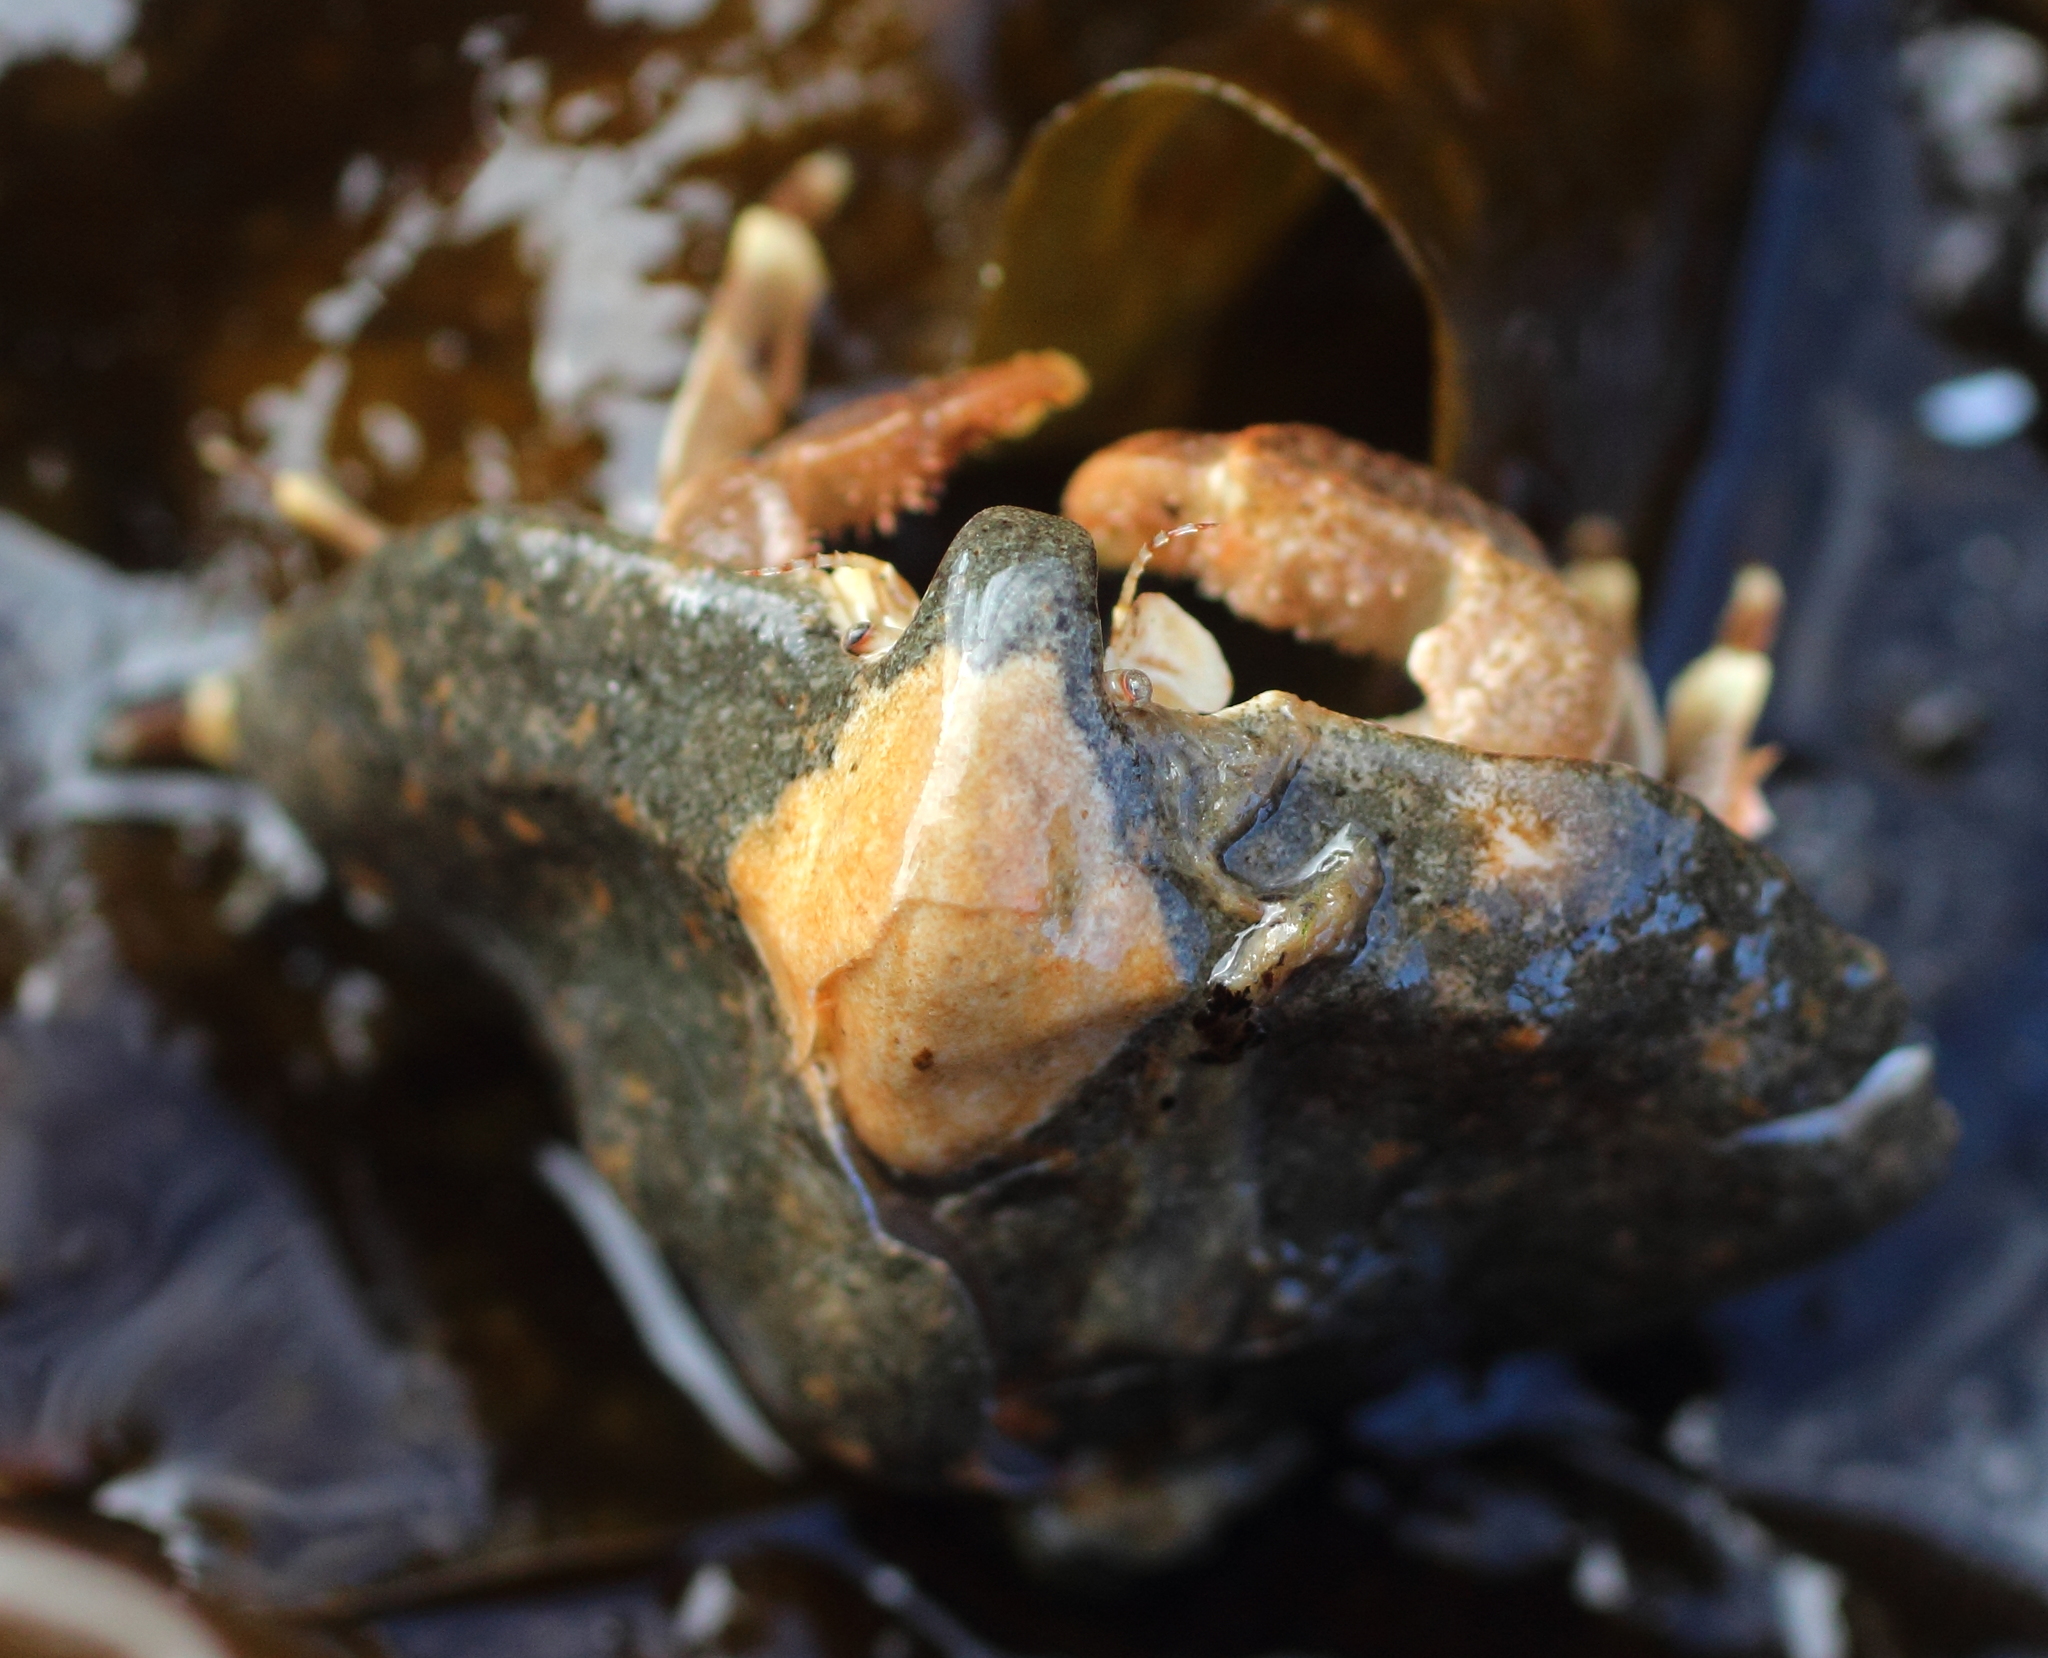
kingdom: Animalia
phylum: Arthropoda
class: Malacostraca
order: Decapoda
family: Lithodidae
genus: Cryptolithodes
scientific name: Cryptolithodes typicus
